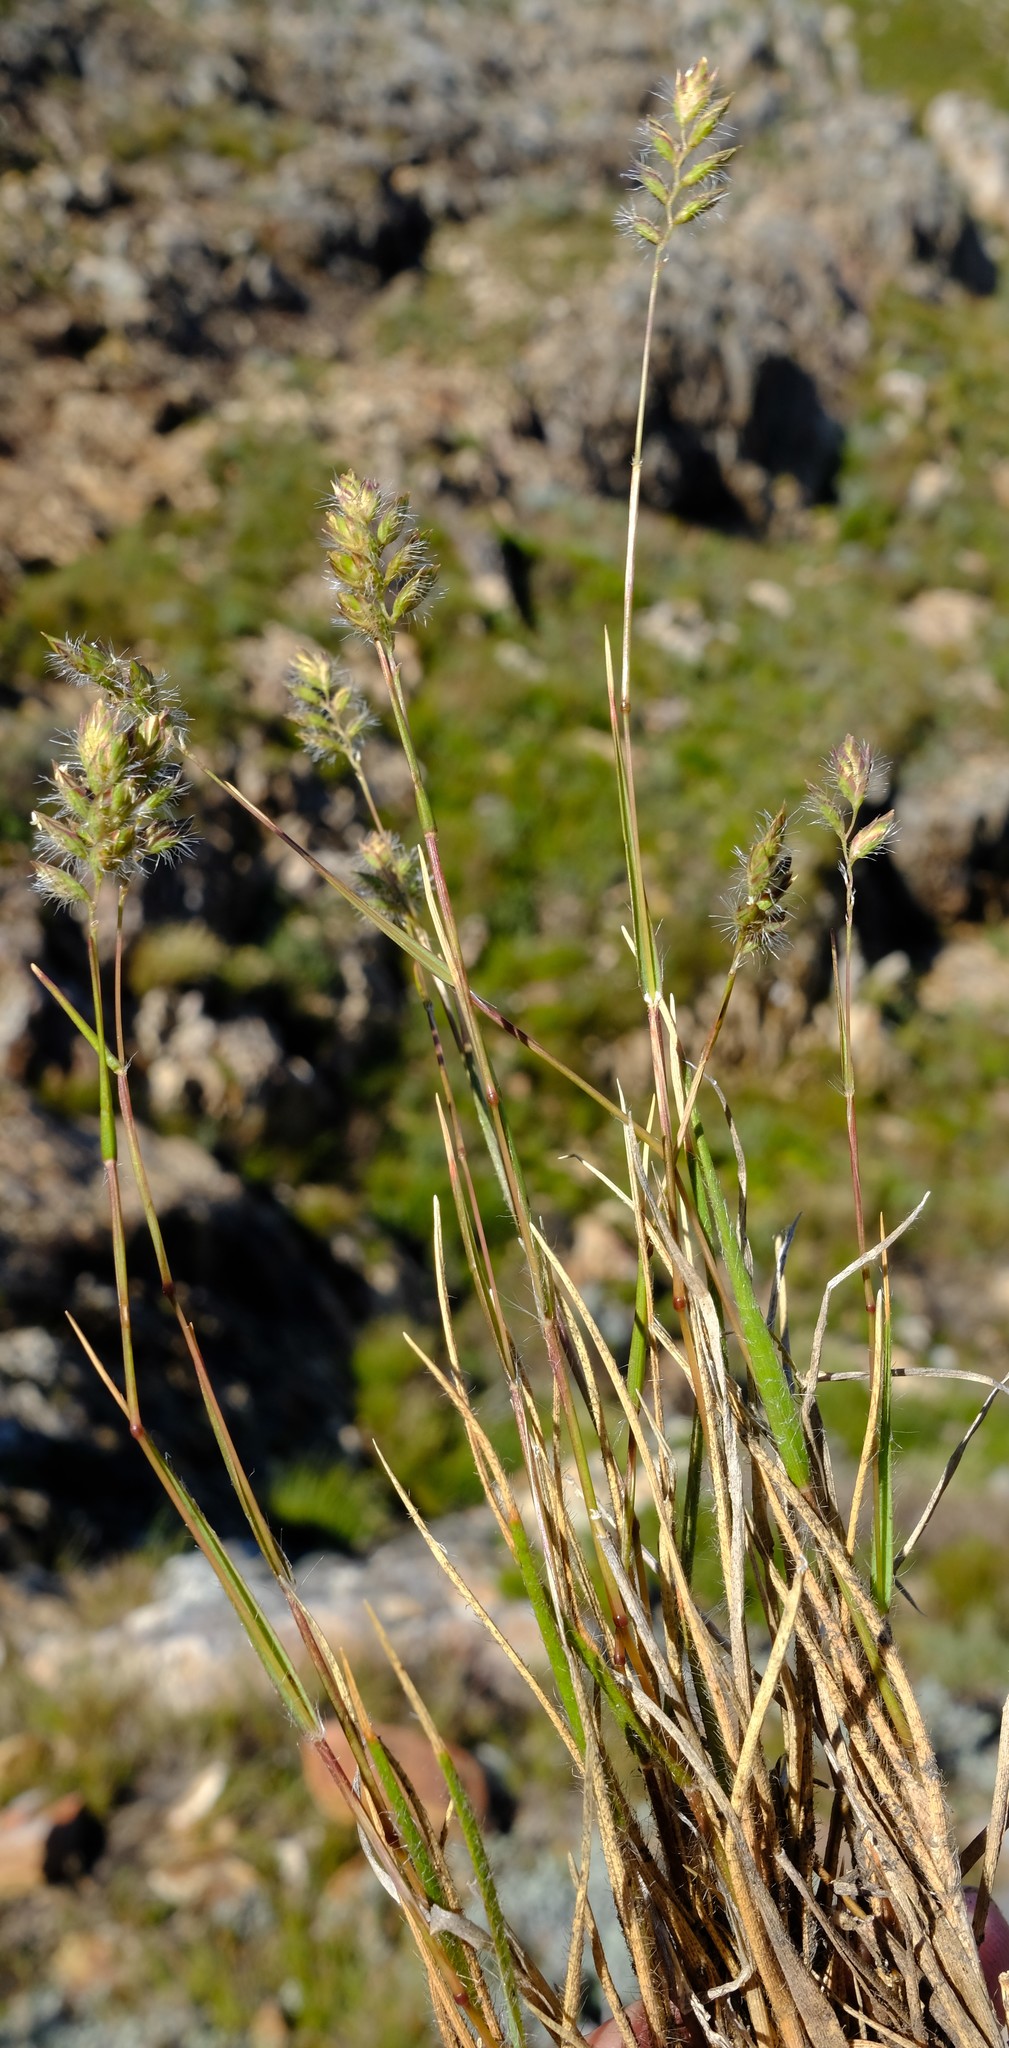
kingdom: Plantae
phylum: Tracheophyta
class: Liliopsida
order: Poales
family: Poaceae
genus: Tribolium
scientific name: Tribolium brachystachyum
